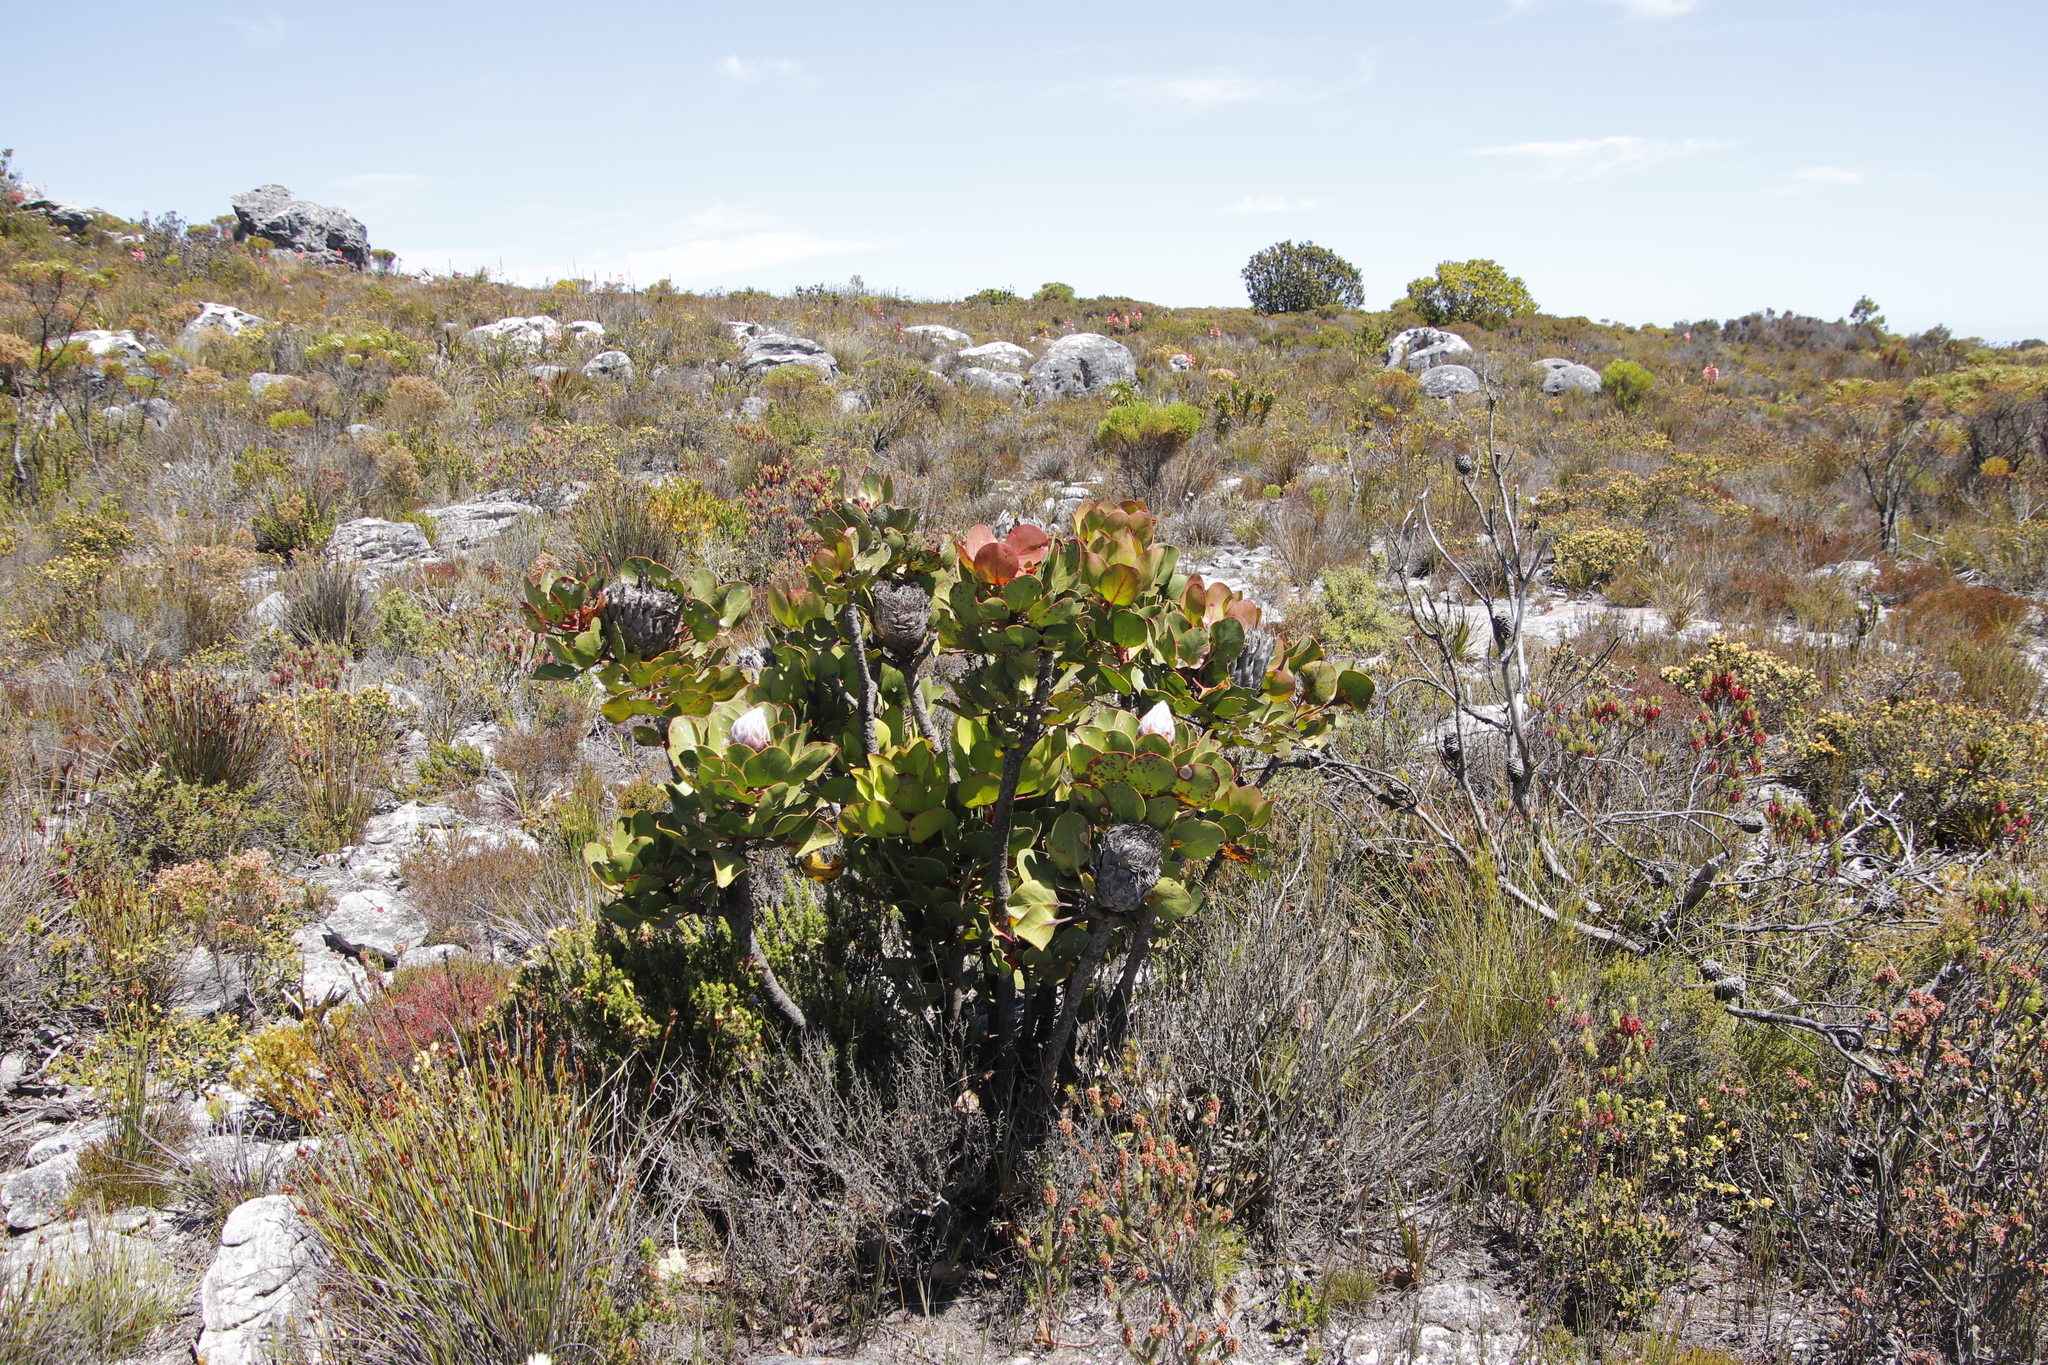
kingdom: Plantae
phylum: Tracheophyta
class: Magnoliopsida
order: Proteales
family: Proteaceae
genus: Protea
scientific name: Protea cynaroides
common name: King protea
